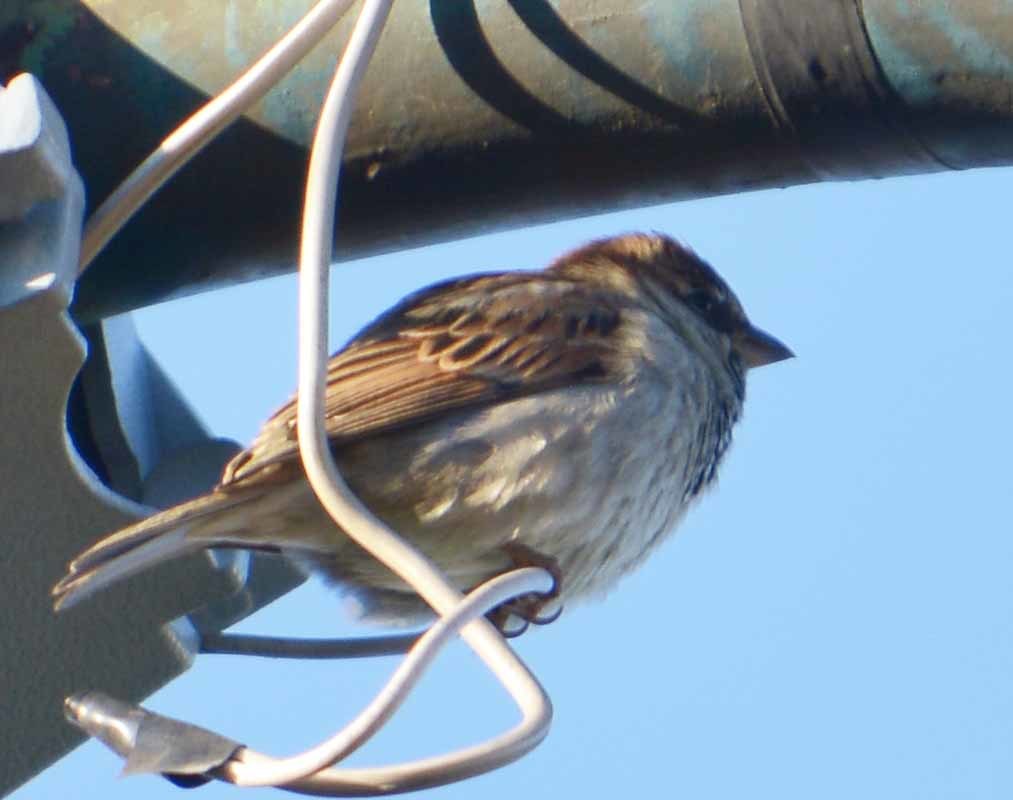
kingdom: Animalia
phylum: Chordata
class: Aves
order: Passeriformes
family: Passeridae
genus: Passer
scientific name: Passer domesticus
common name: House sparrow
